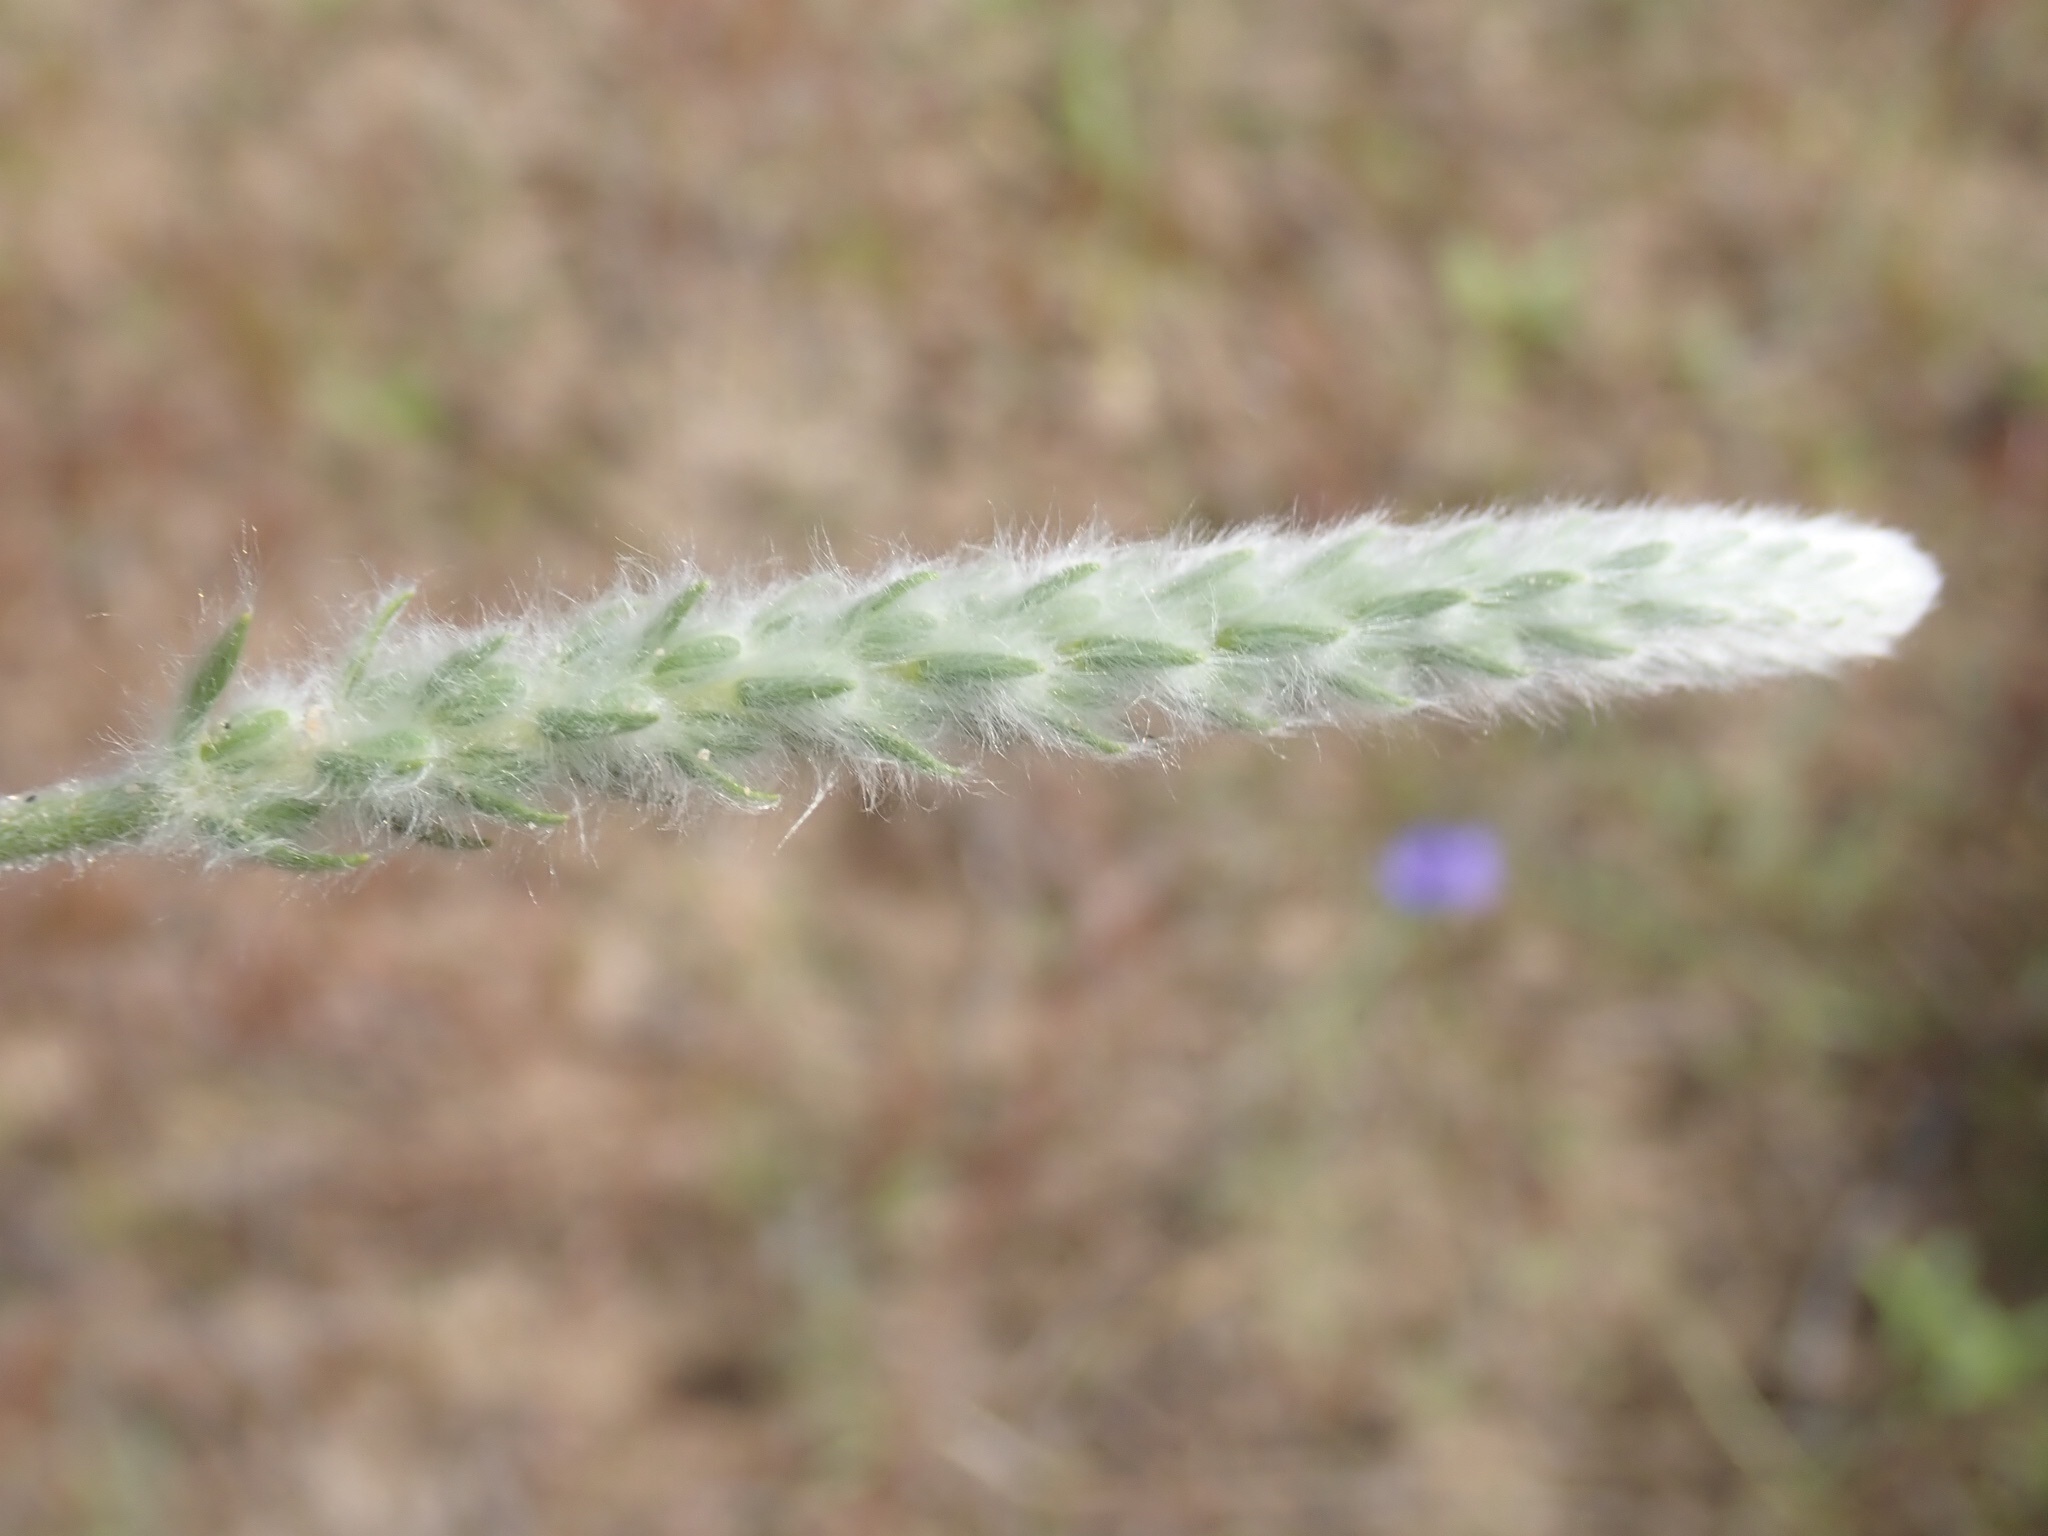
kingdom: Plantae
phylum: Tracheophyta
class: Magnoliopsida
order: Lamiales
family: Plantaginaceae
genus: Plantago
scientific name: Plantago patagonica
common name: Patagonia indian-wheat
